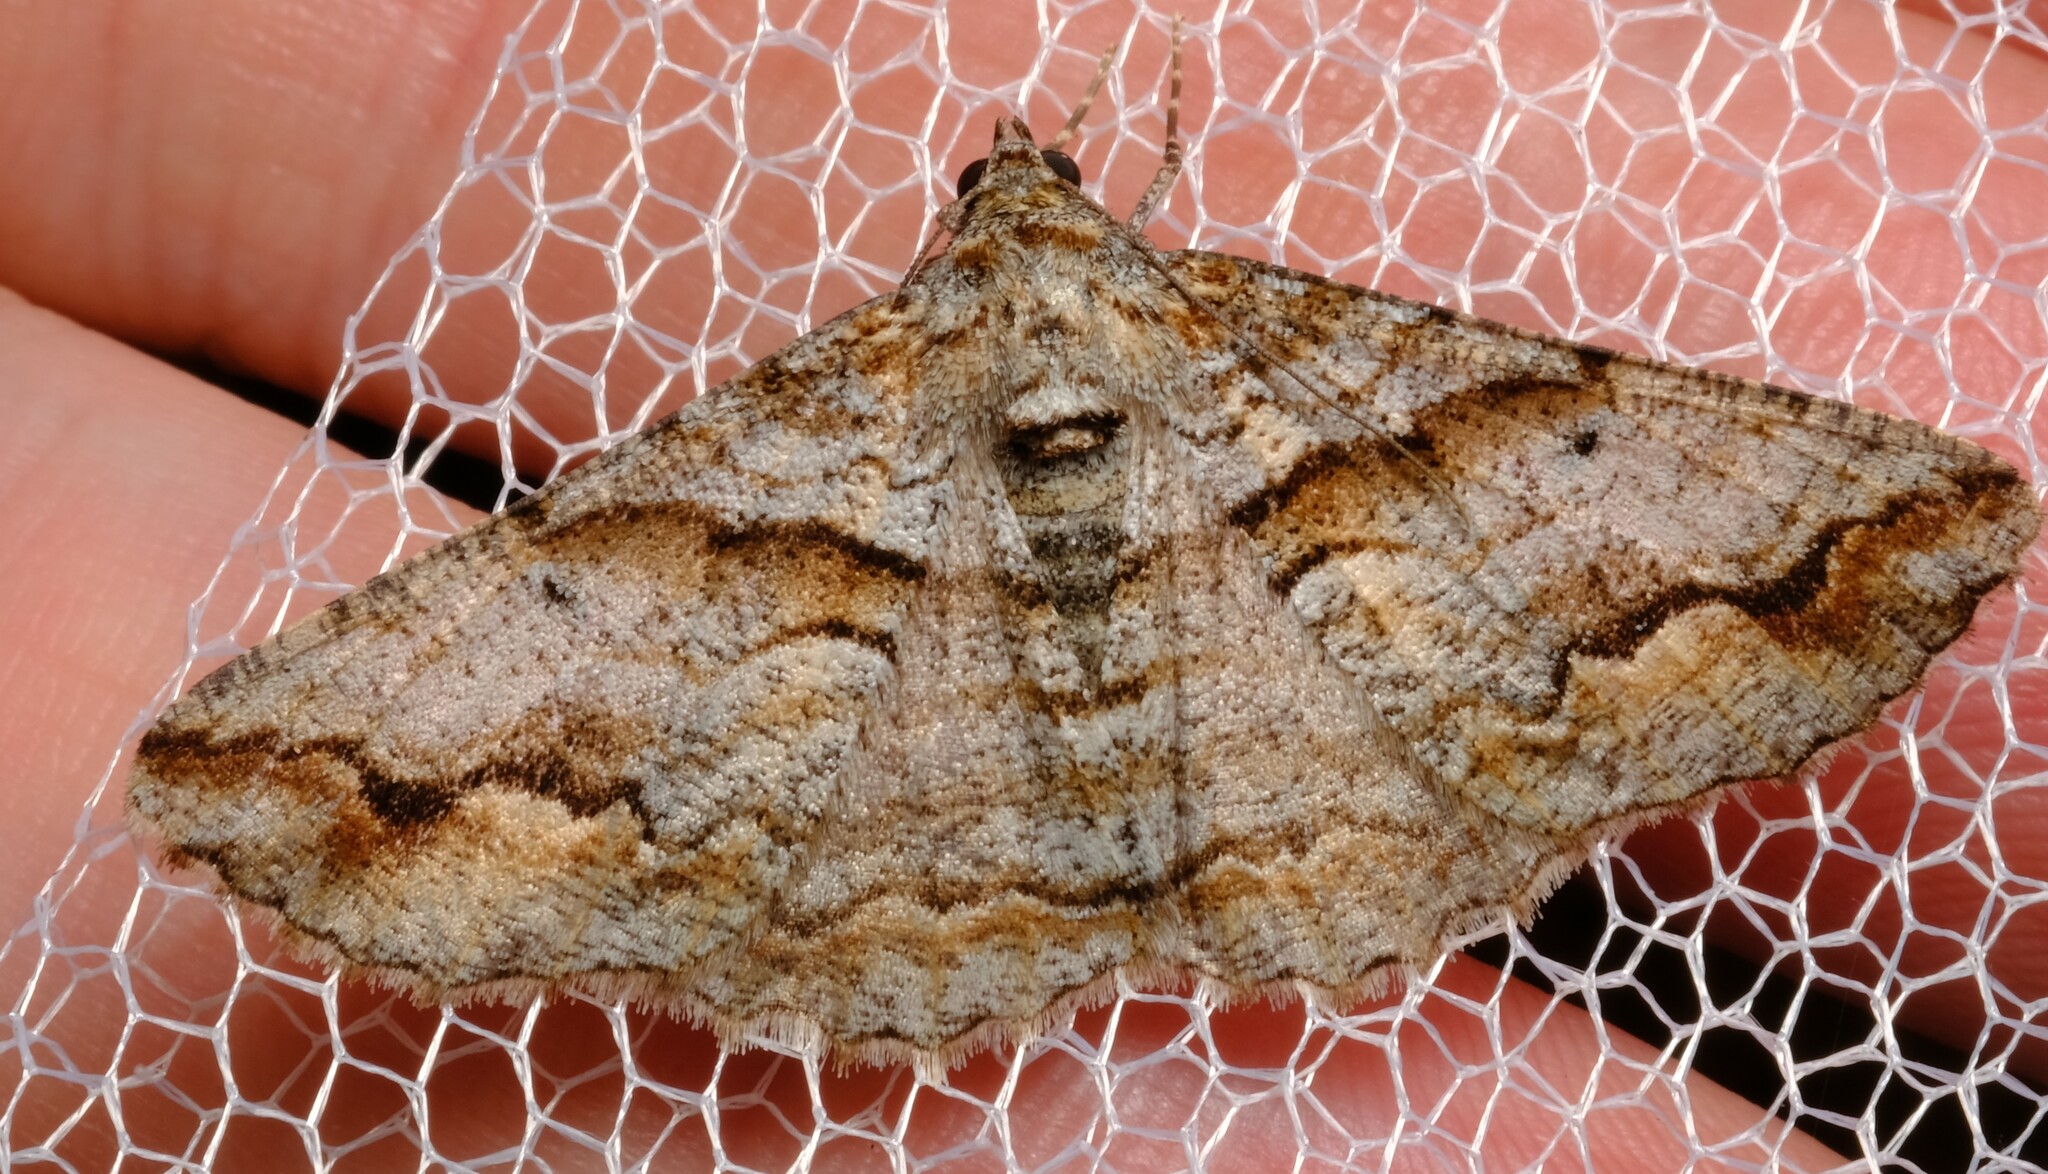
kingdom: Animalia
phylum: Arthropoda
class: Insecta
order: Lepidoptera
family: Geometridae
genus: Gastrinodes
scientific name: Gastrinodes bitaeniaria
